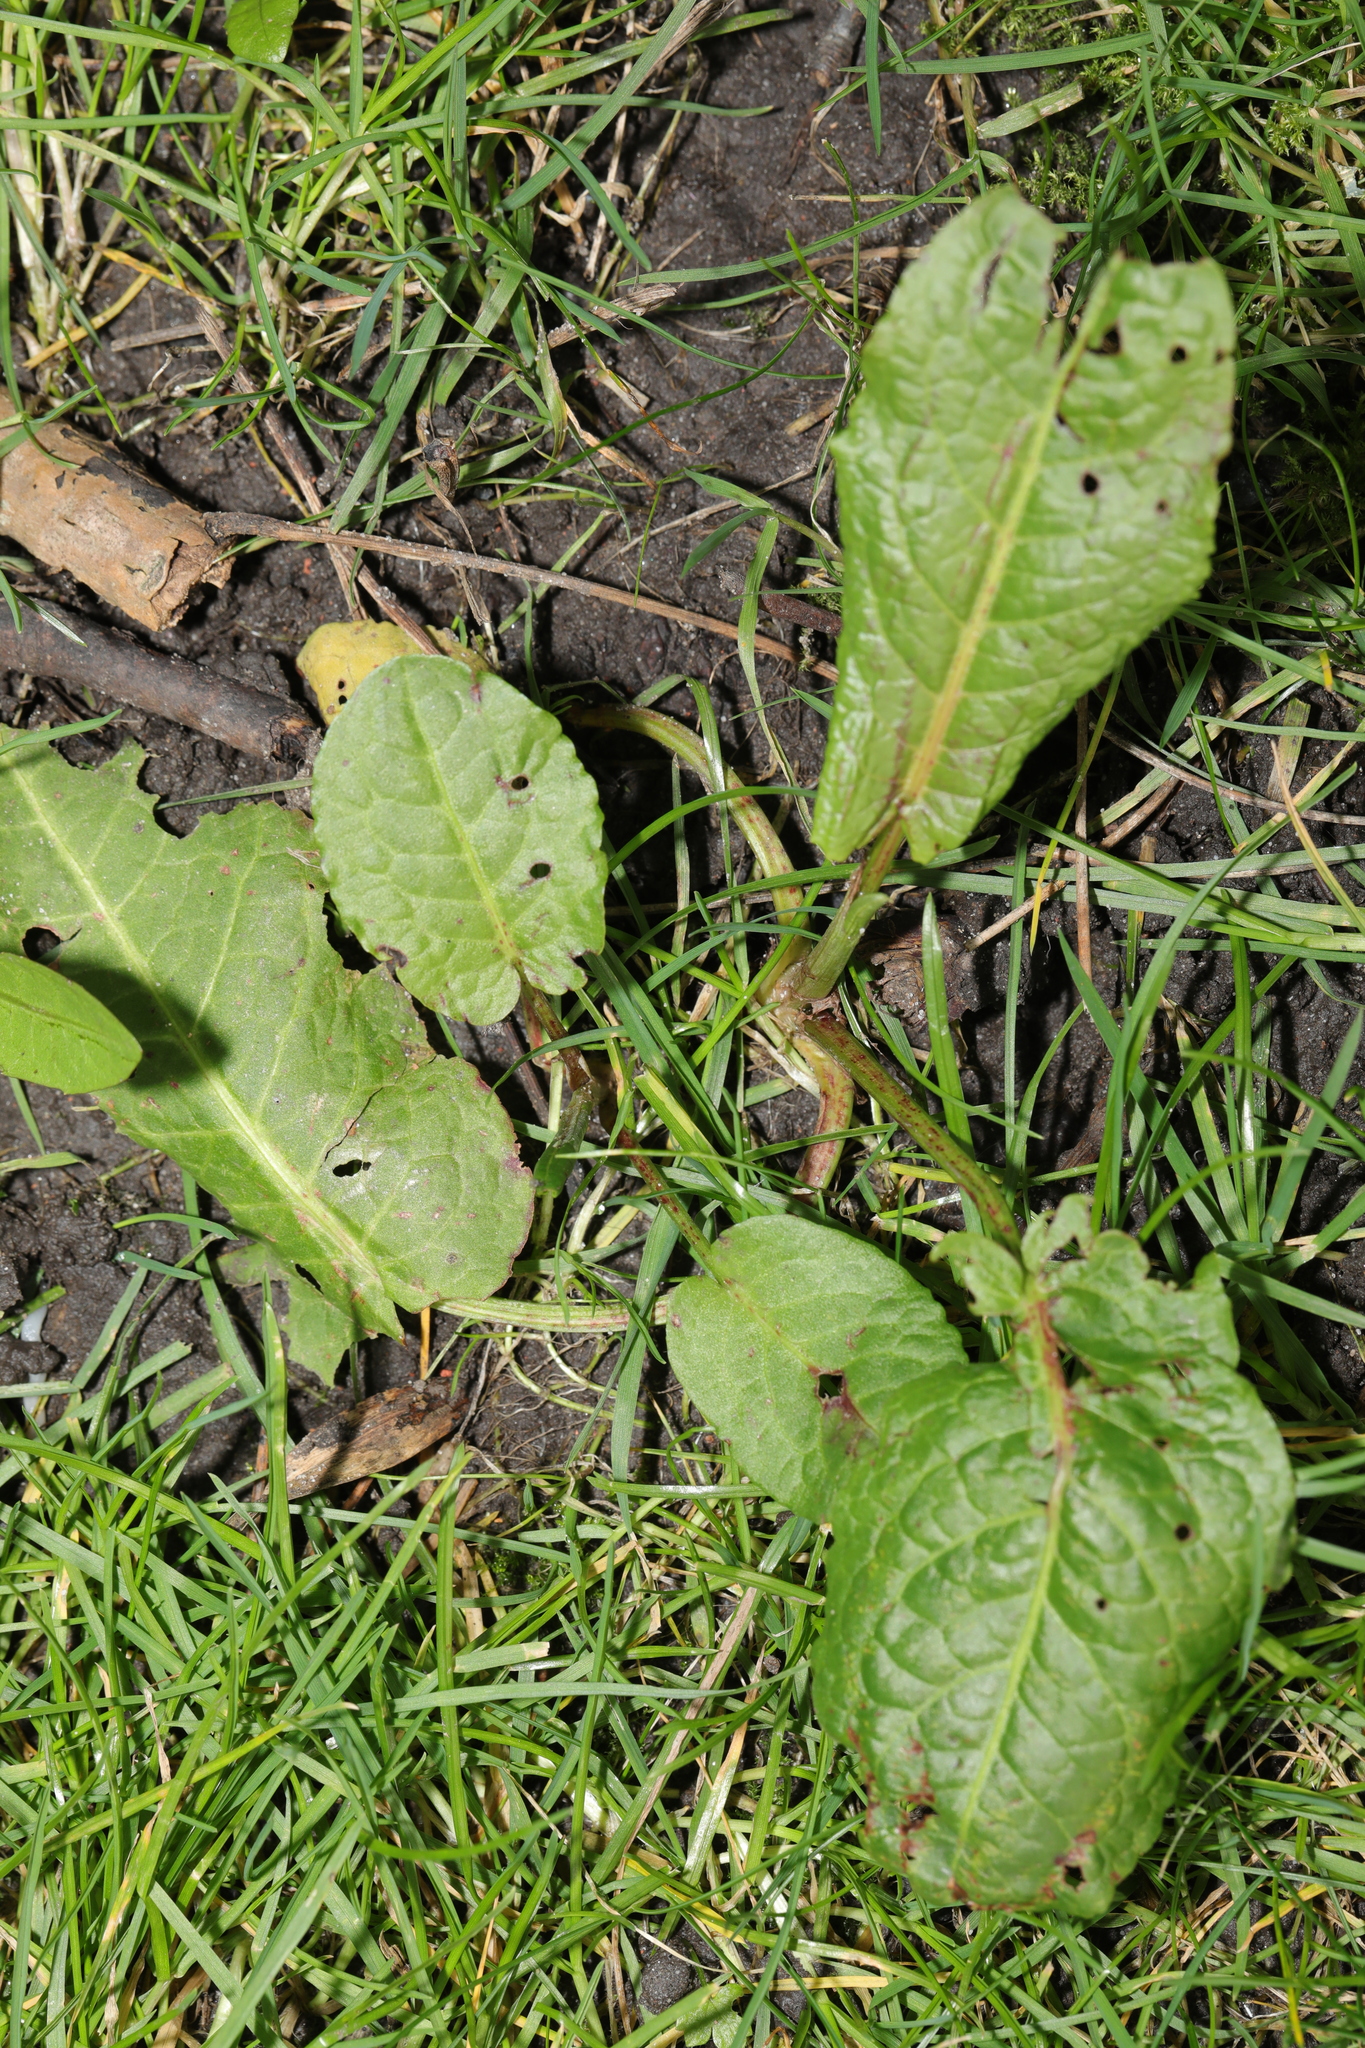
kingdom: Plantae
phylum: Tracheophyta
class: Magnoliopsida
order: Caryophyllales
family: Polygonaceae
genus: Rumex
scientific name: Rumex obtusifolius
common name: Bitter dock
